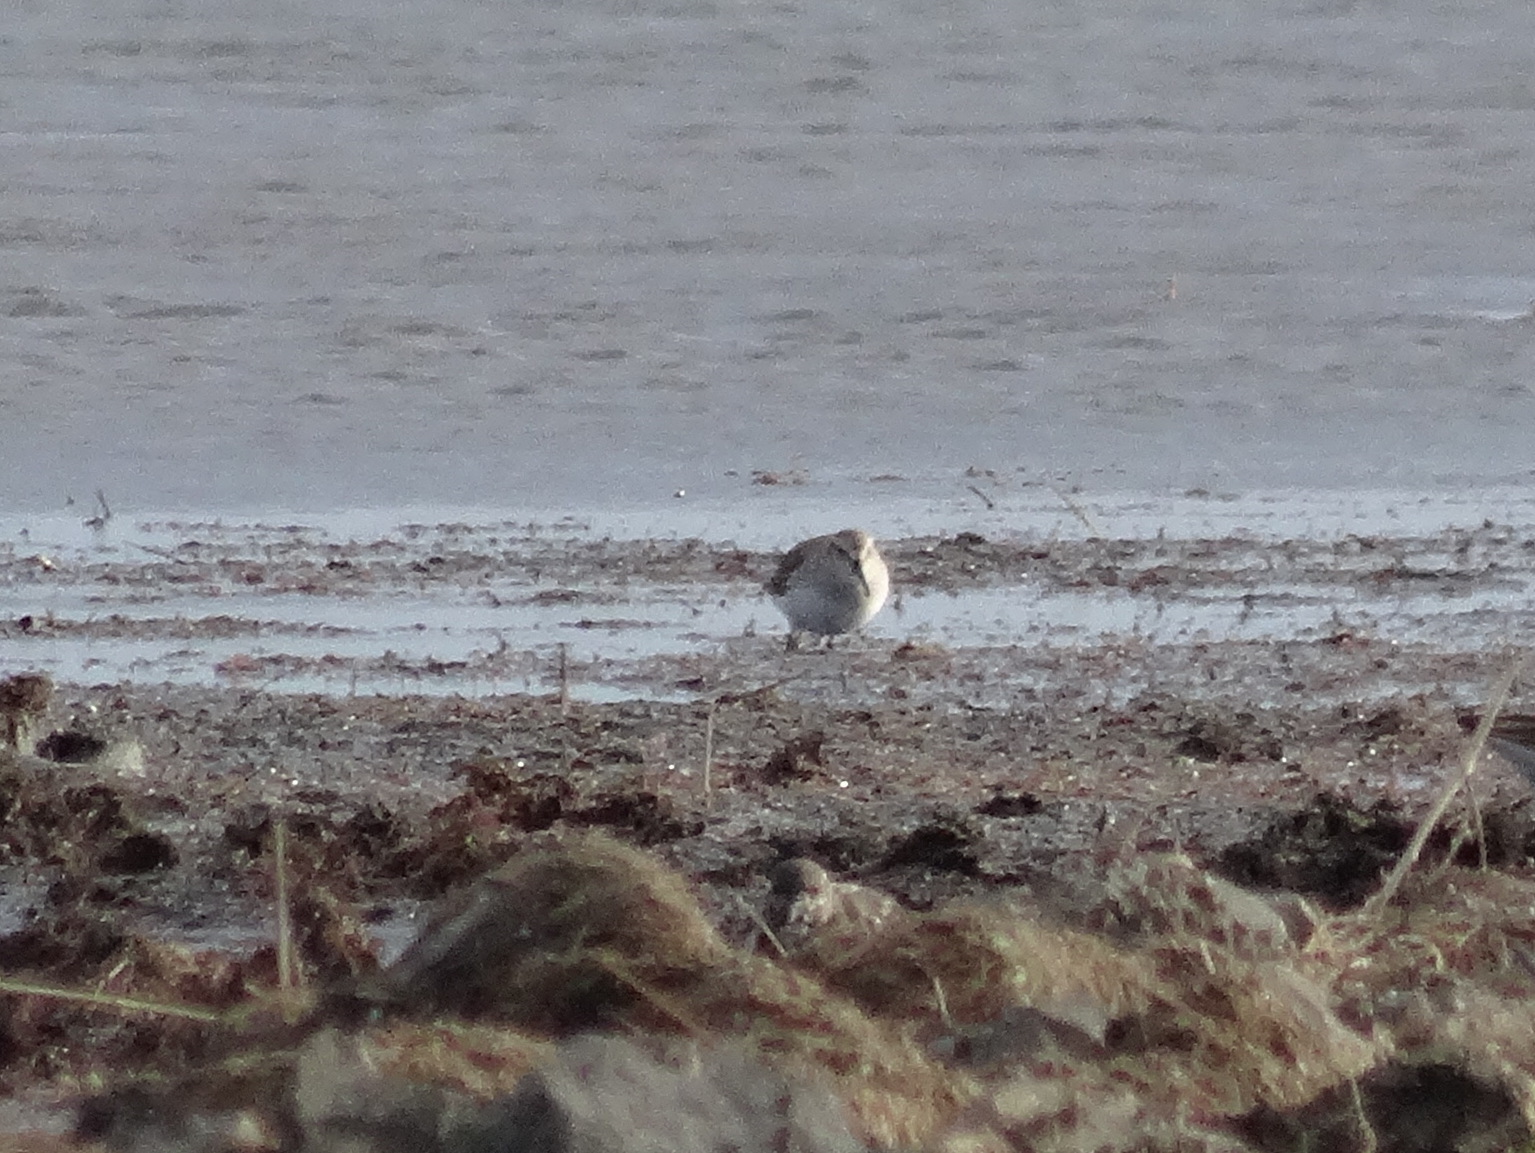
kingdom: Animalia
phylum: Chordata
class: Aves
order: Charadriiformes
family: Scolopacidae
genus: Calidris
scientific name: Calidris alpina
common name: Dunlin
